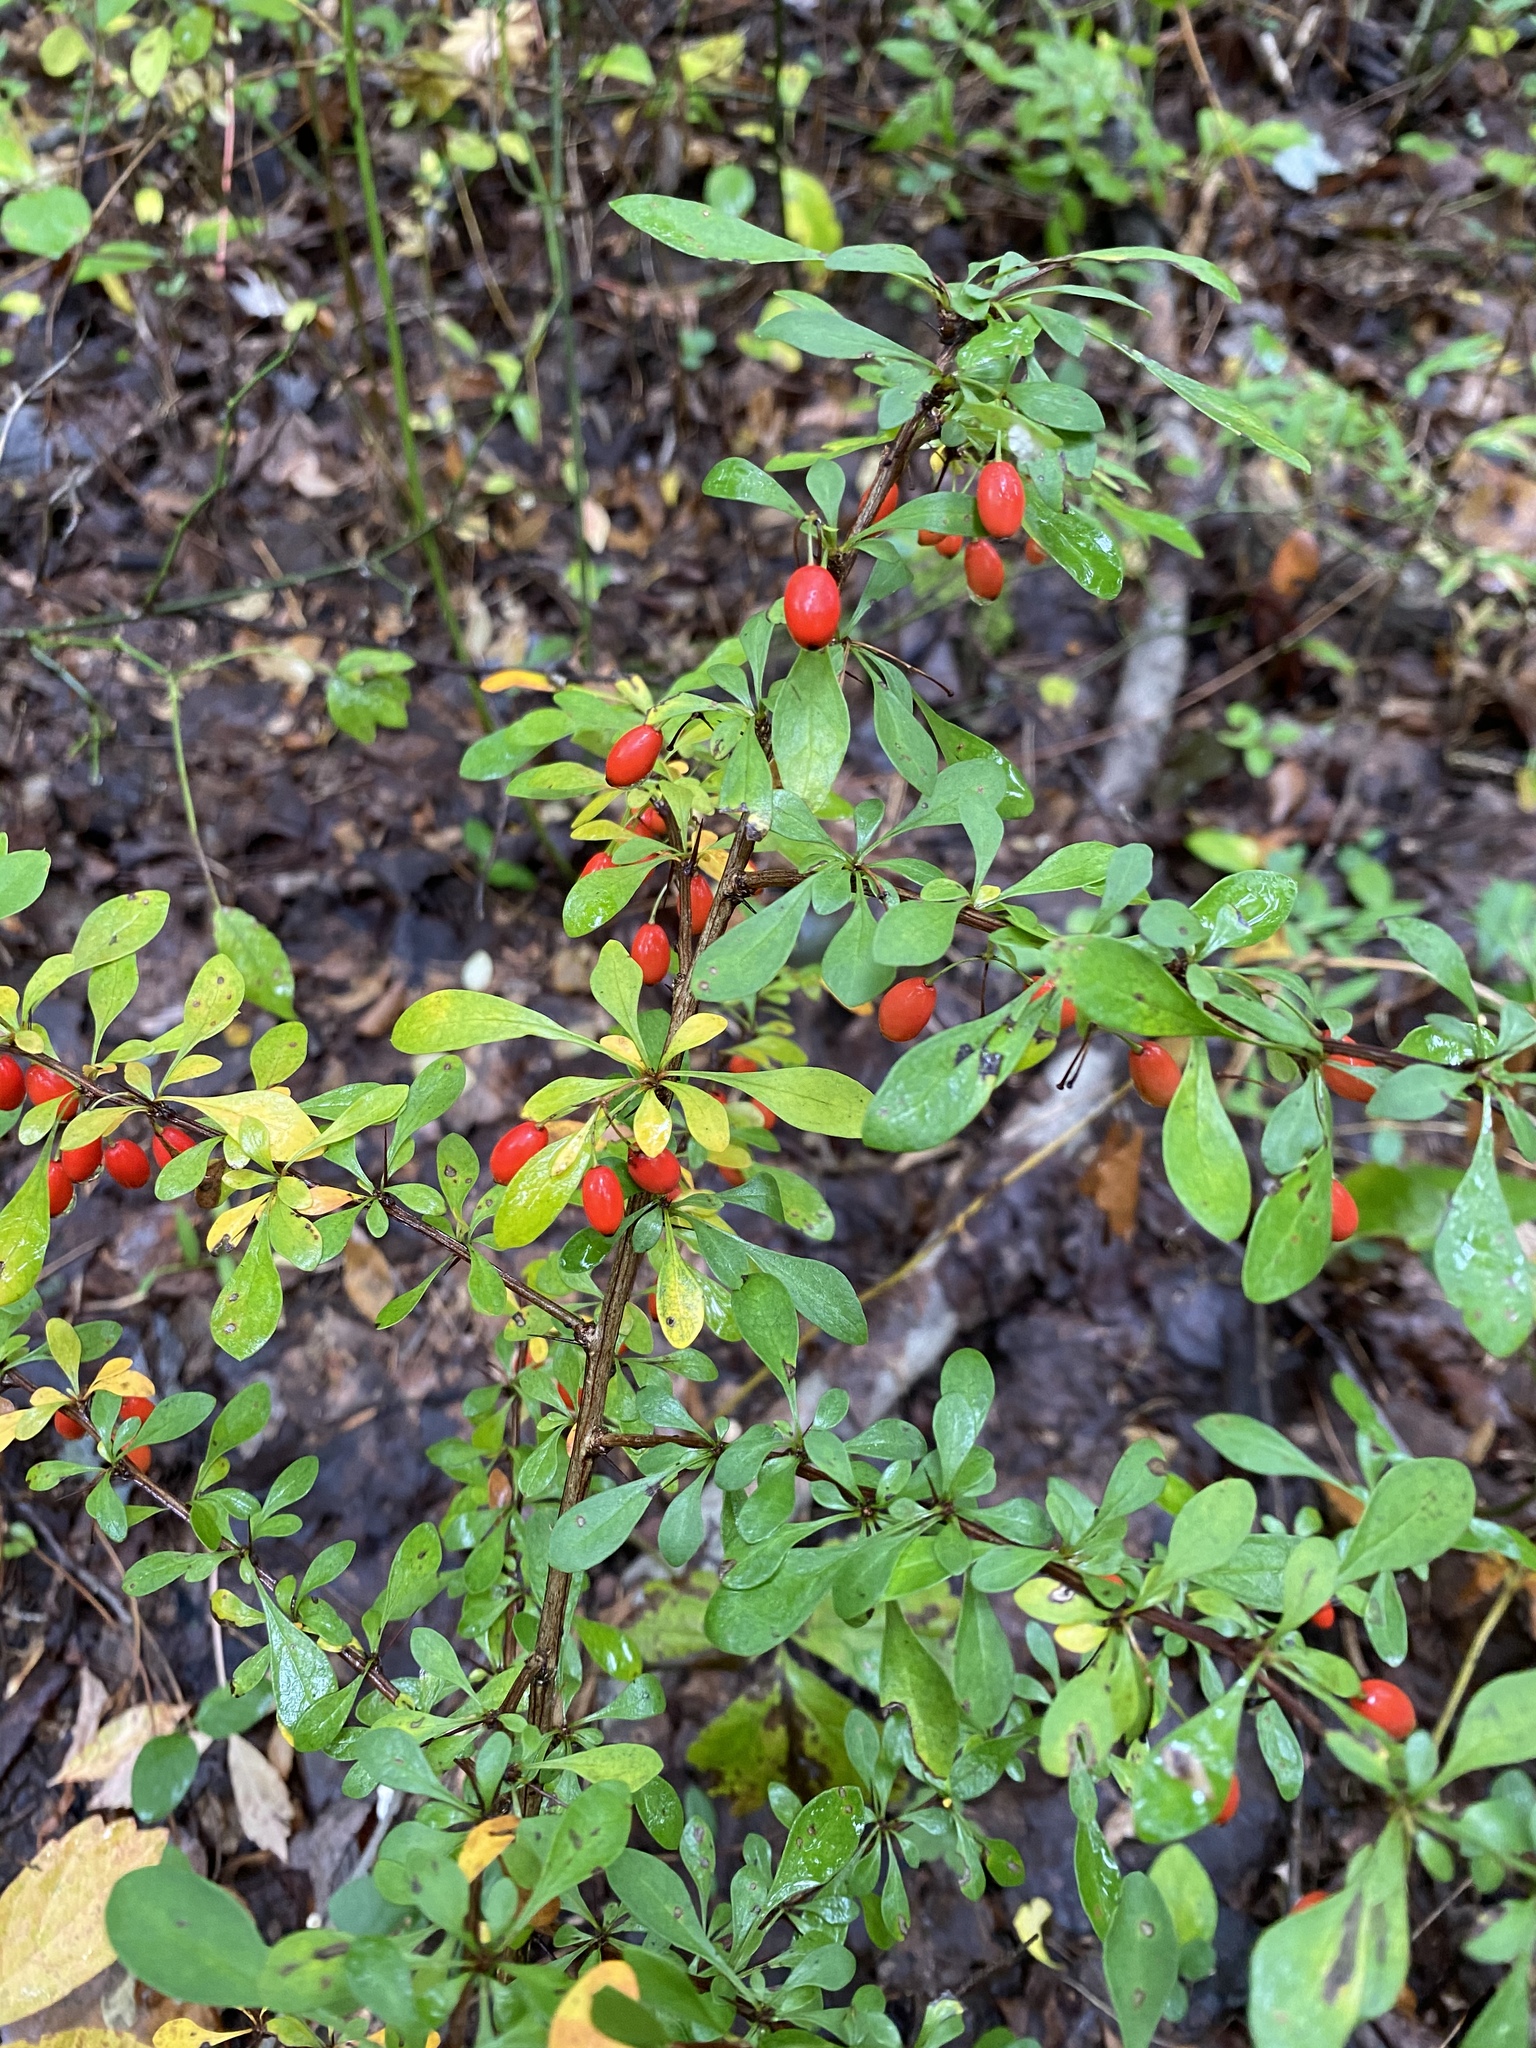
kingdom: Plantae
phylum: Tracheophyta
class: Magnoliopsida
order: Ranunculales
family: Berberidaceae
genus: Berberis
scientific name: Berberis thunbergii
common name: Japanese barberry
